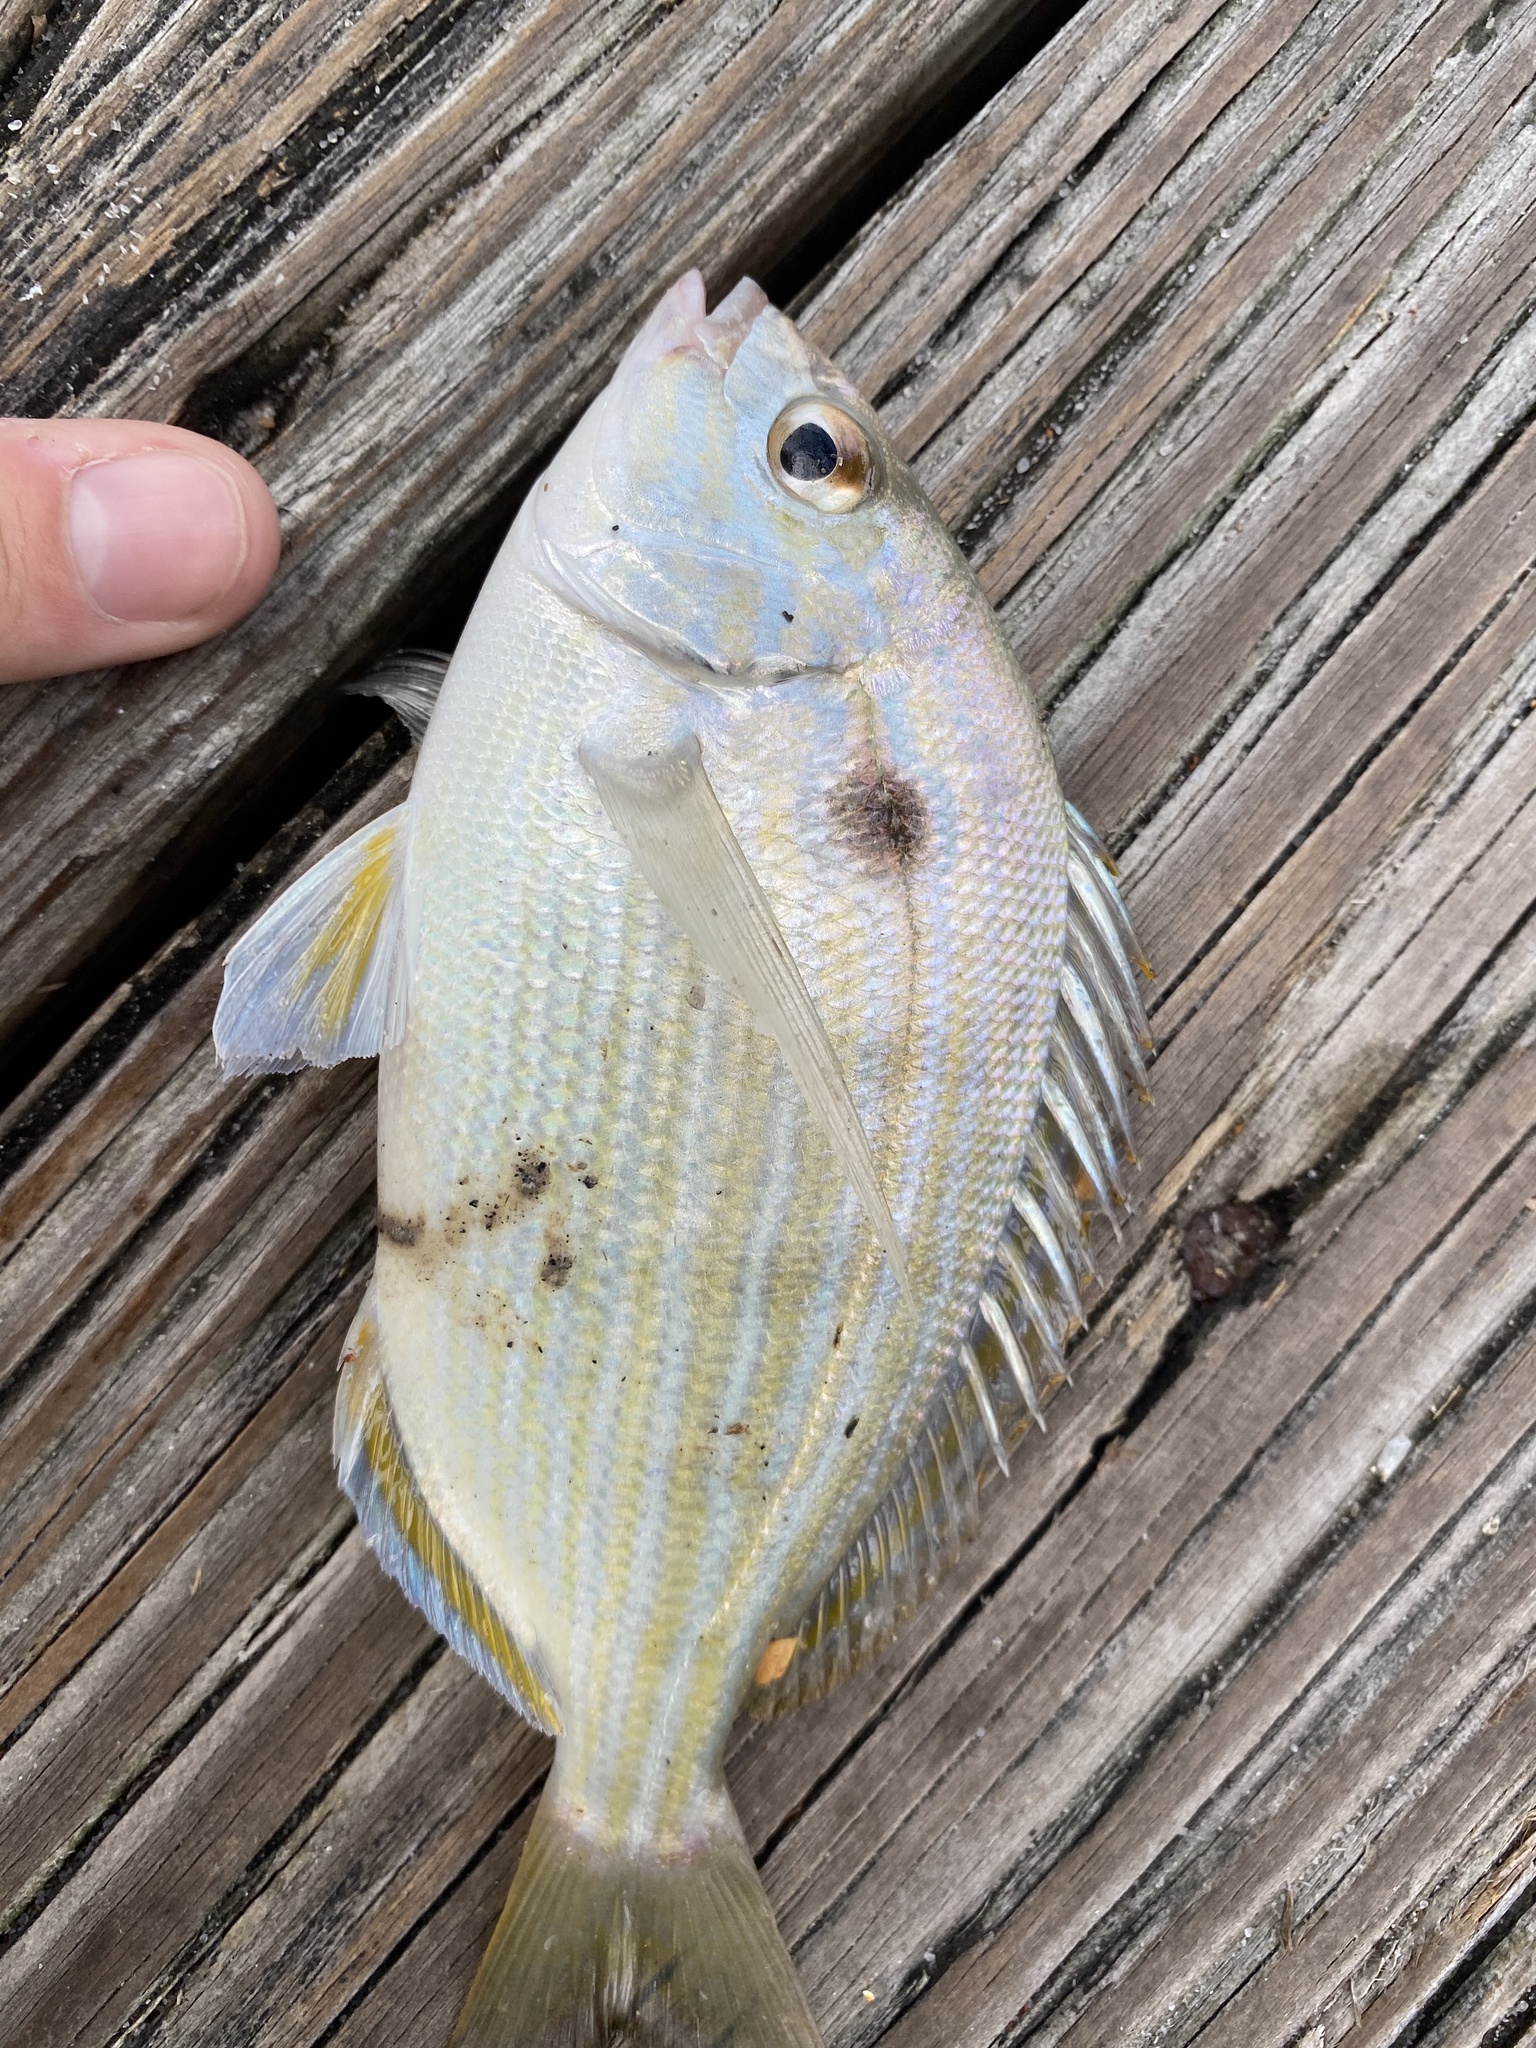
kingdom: Animalia
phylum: Chordata
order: Perciformes
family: Sparidae
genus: Lagodon
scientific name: Lagodon rhomboides
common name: Pinfish
